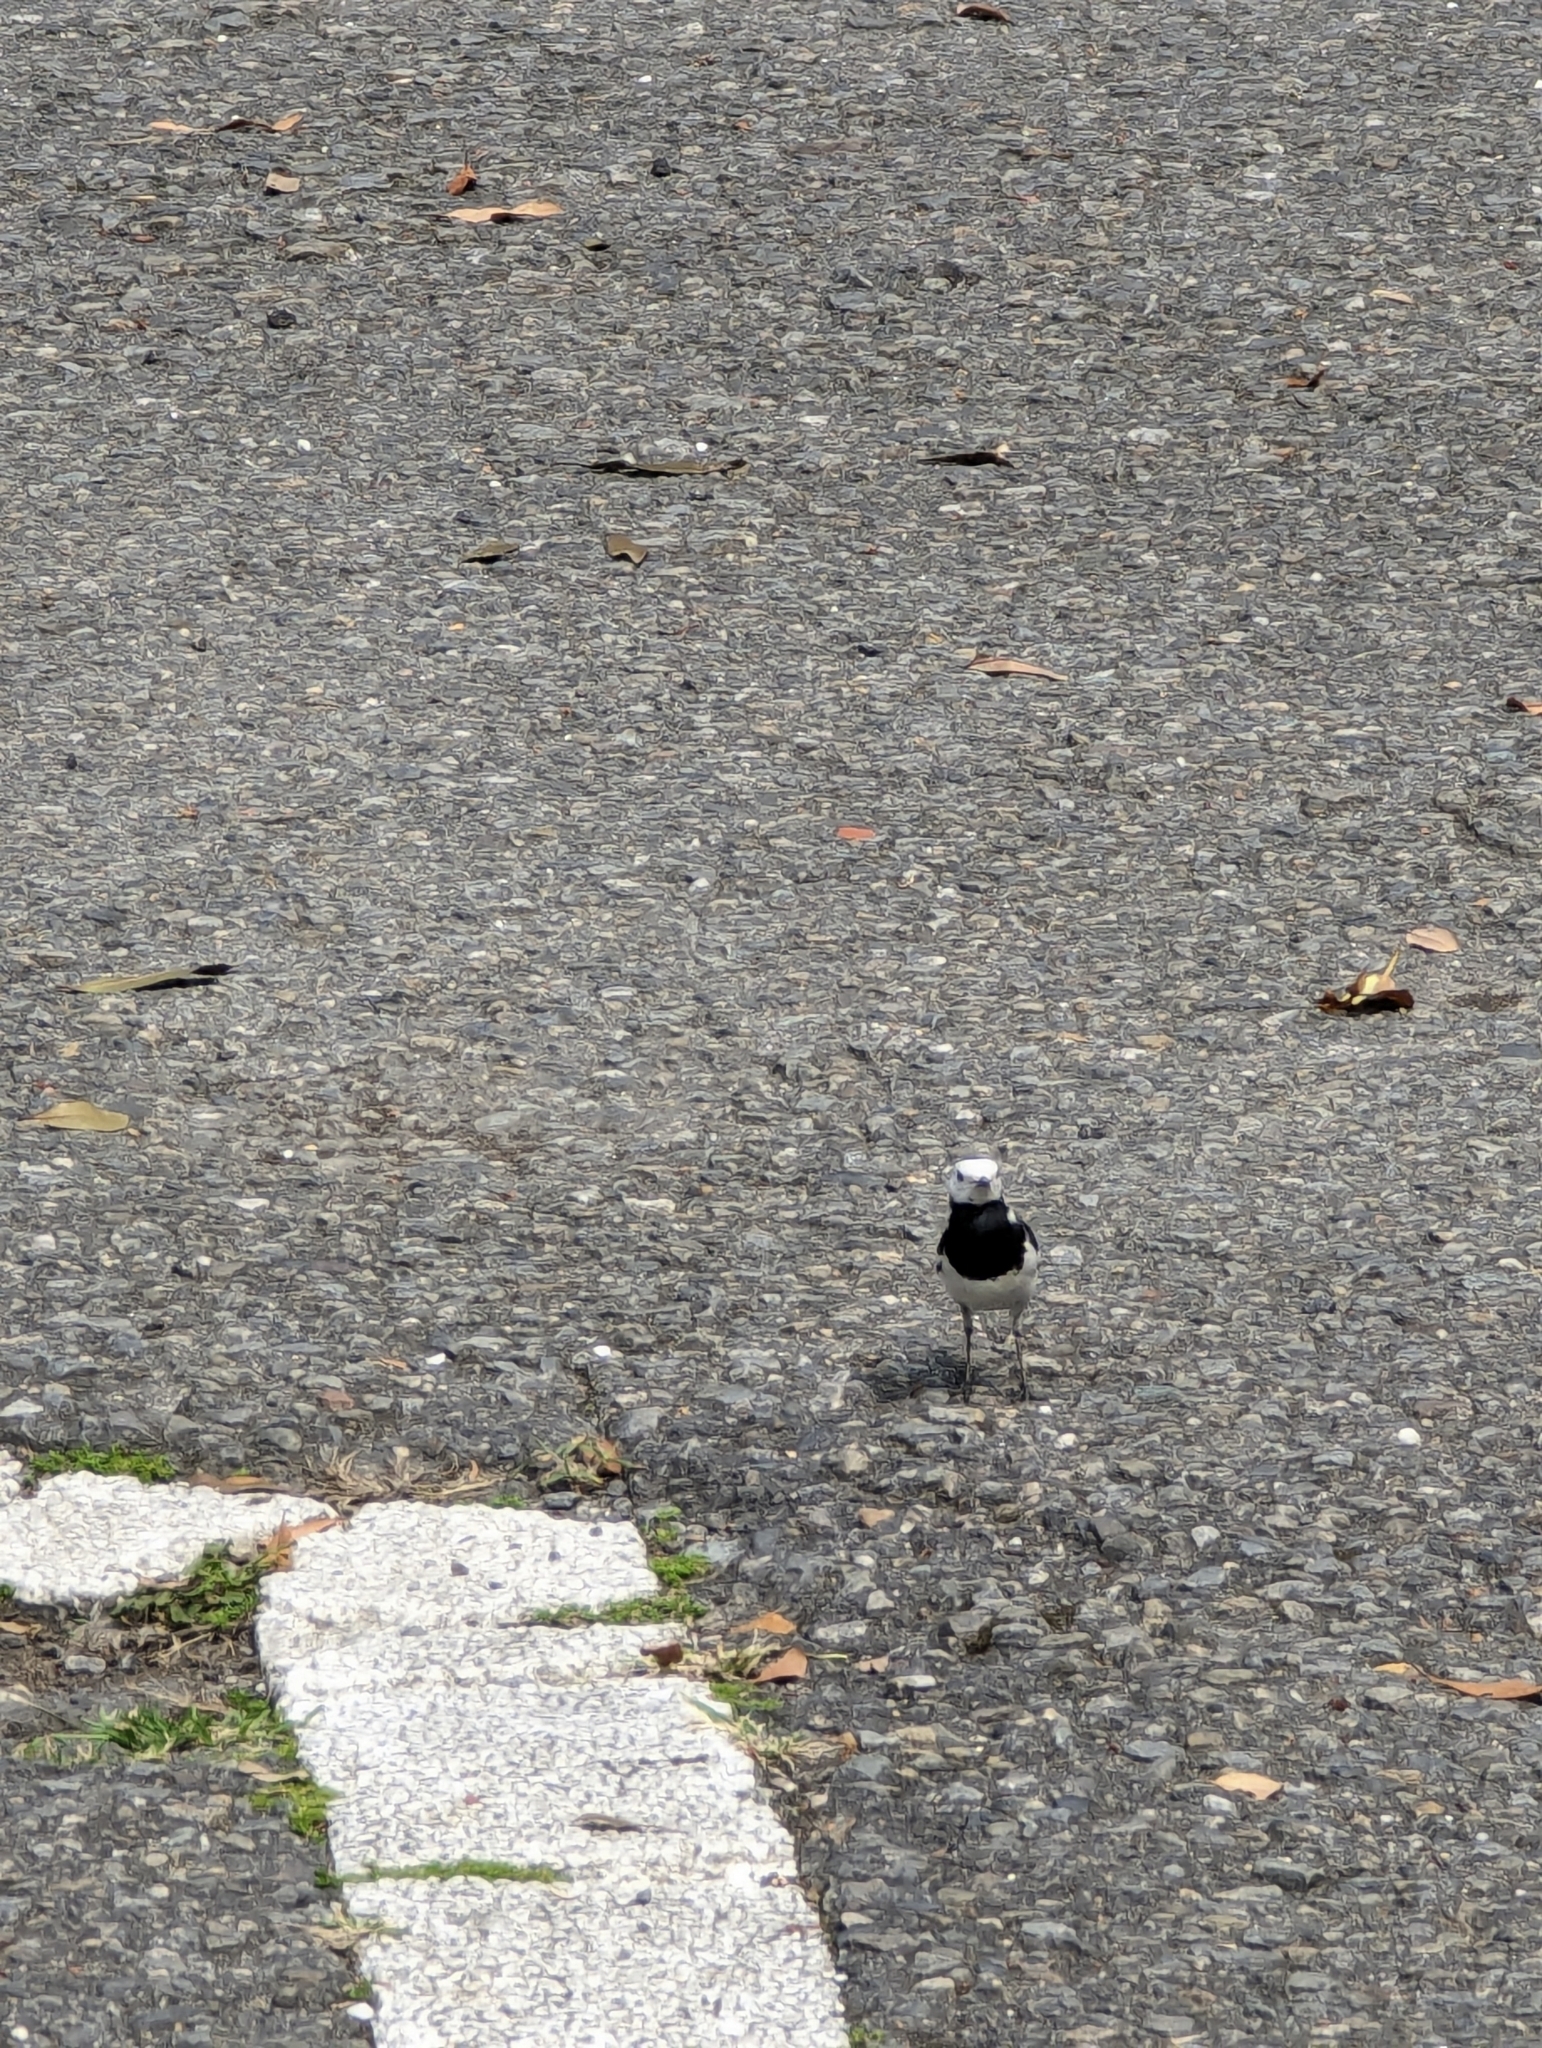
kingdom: Animalia
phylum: Chordata
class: Aves
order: Passeriformes
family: Motacillidae
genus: Motacilla
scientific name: Motacilla alba
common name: White wagtail
